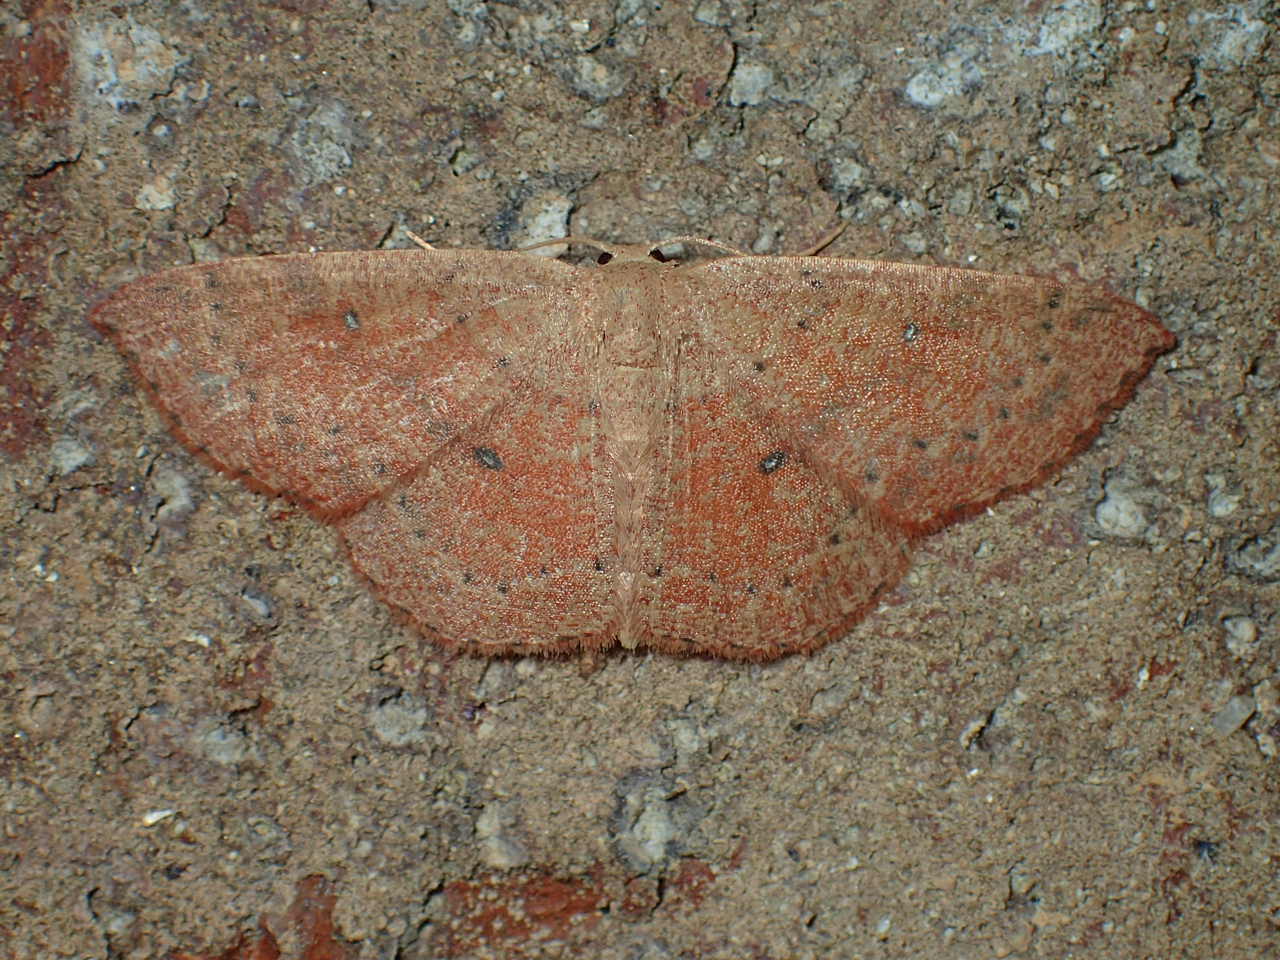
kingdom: Animalia
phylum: Arthropoda
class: Insecta
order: Lepidoptera
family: Geometridae
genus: Cyclophora
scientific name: Cyclophora packardi
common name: Packard's wave
